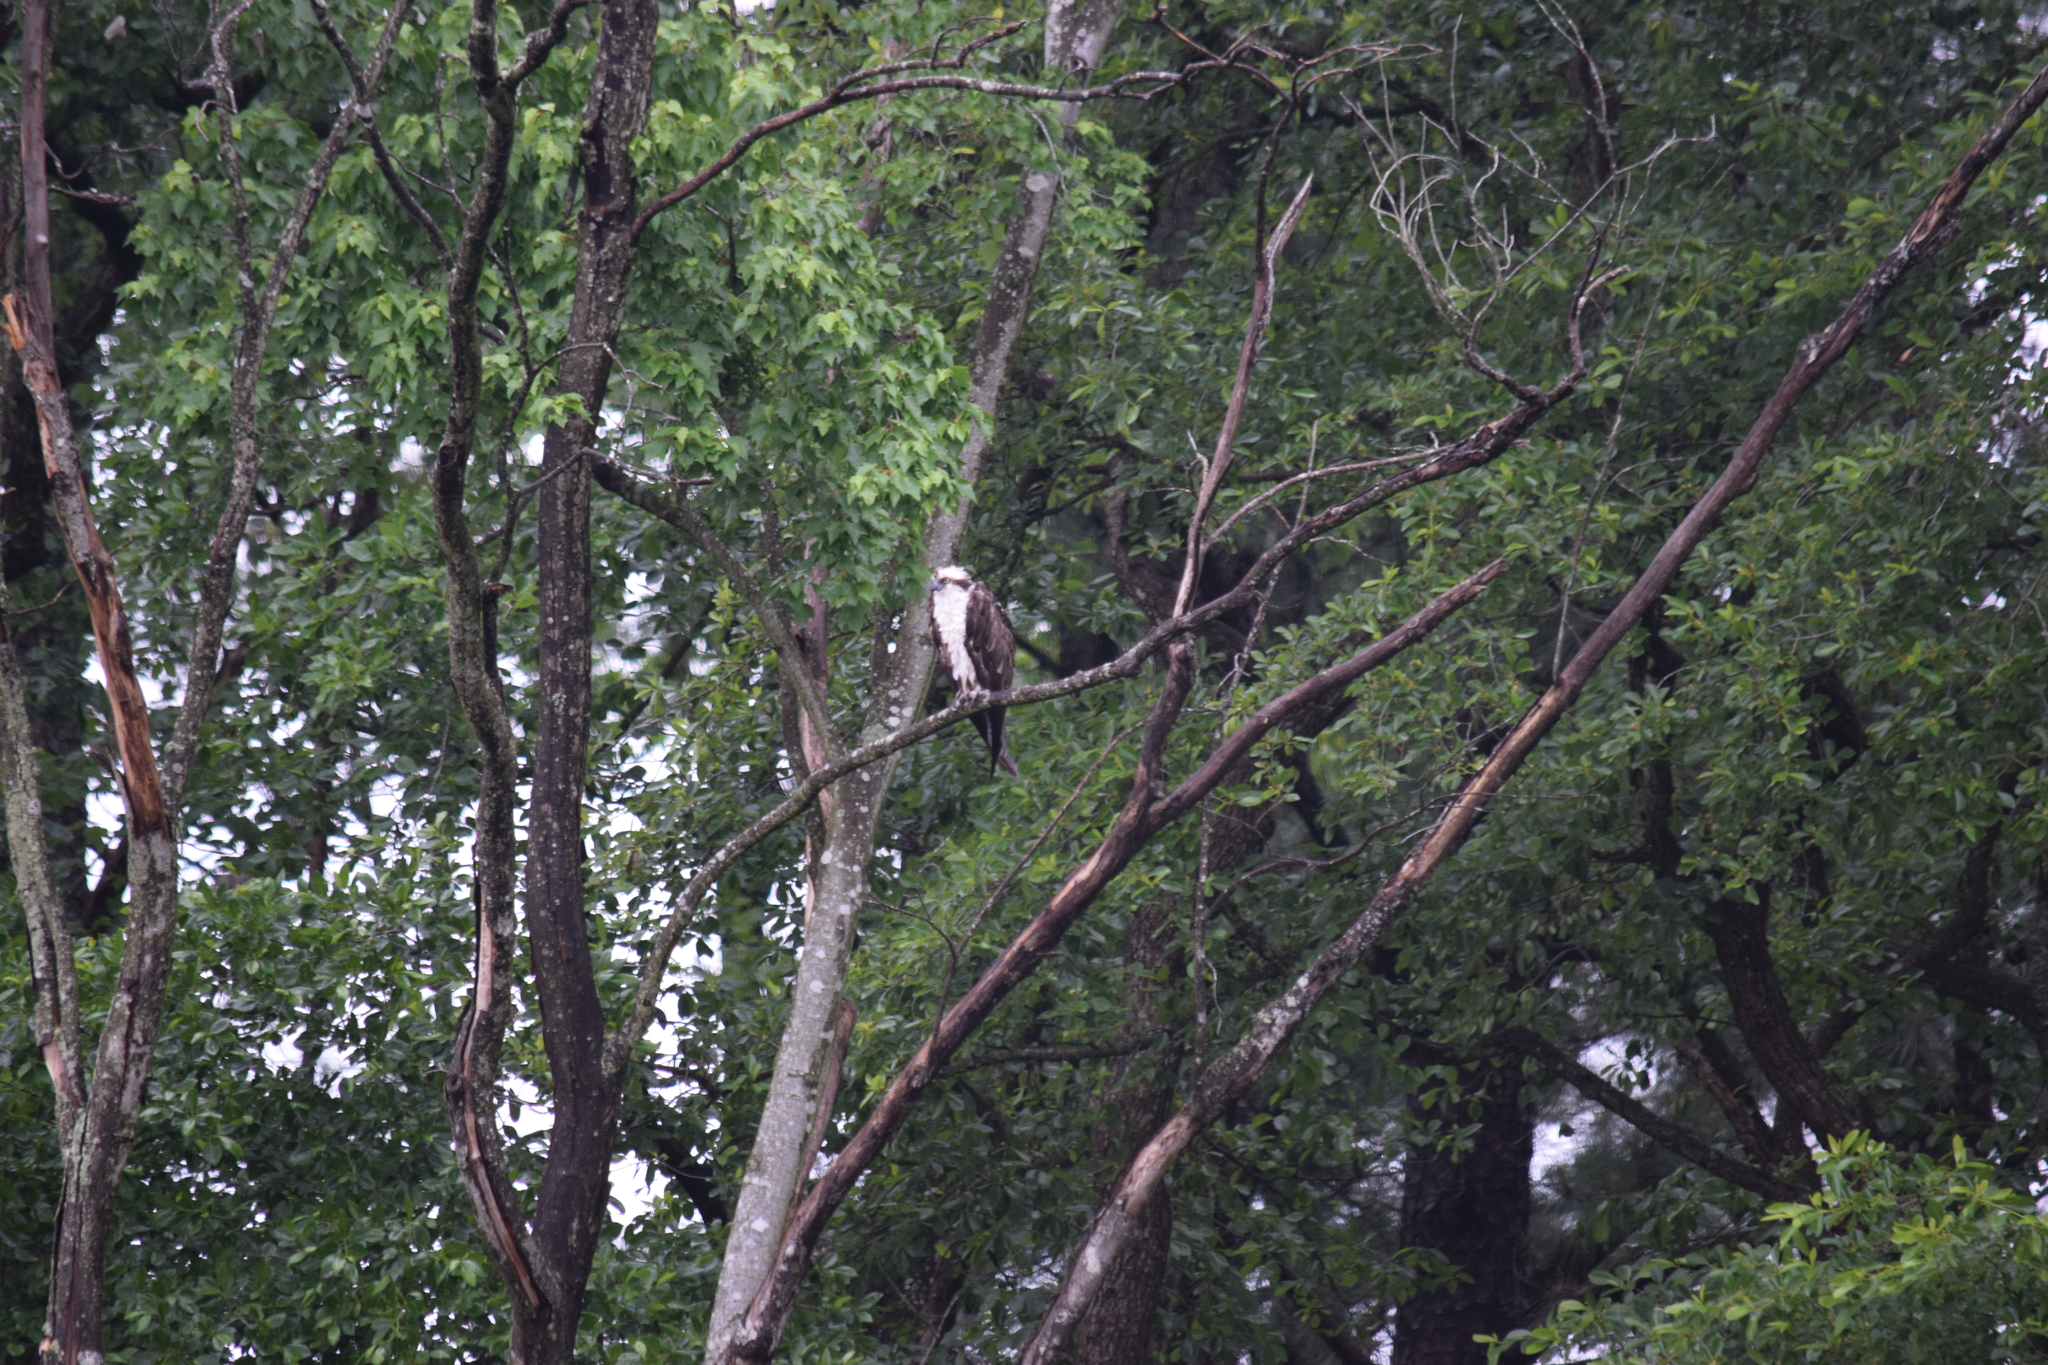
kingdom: Animalia
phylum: Chordata
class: Aves
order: Accipitriformes
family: Pandionidae
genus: Pandion
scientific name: Pandion haliaetus
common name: Osprey
